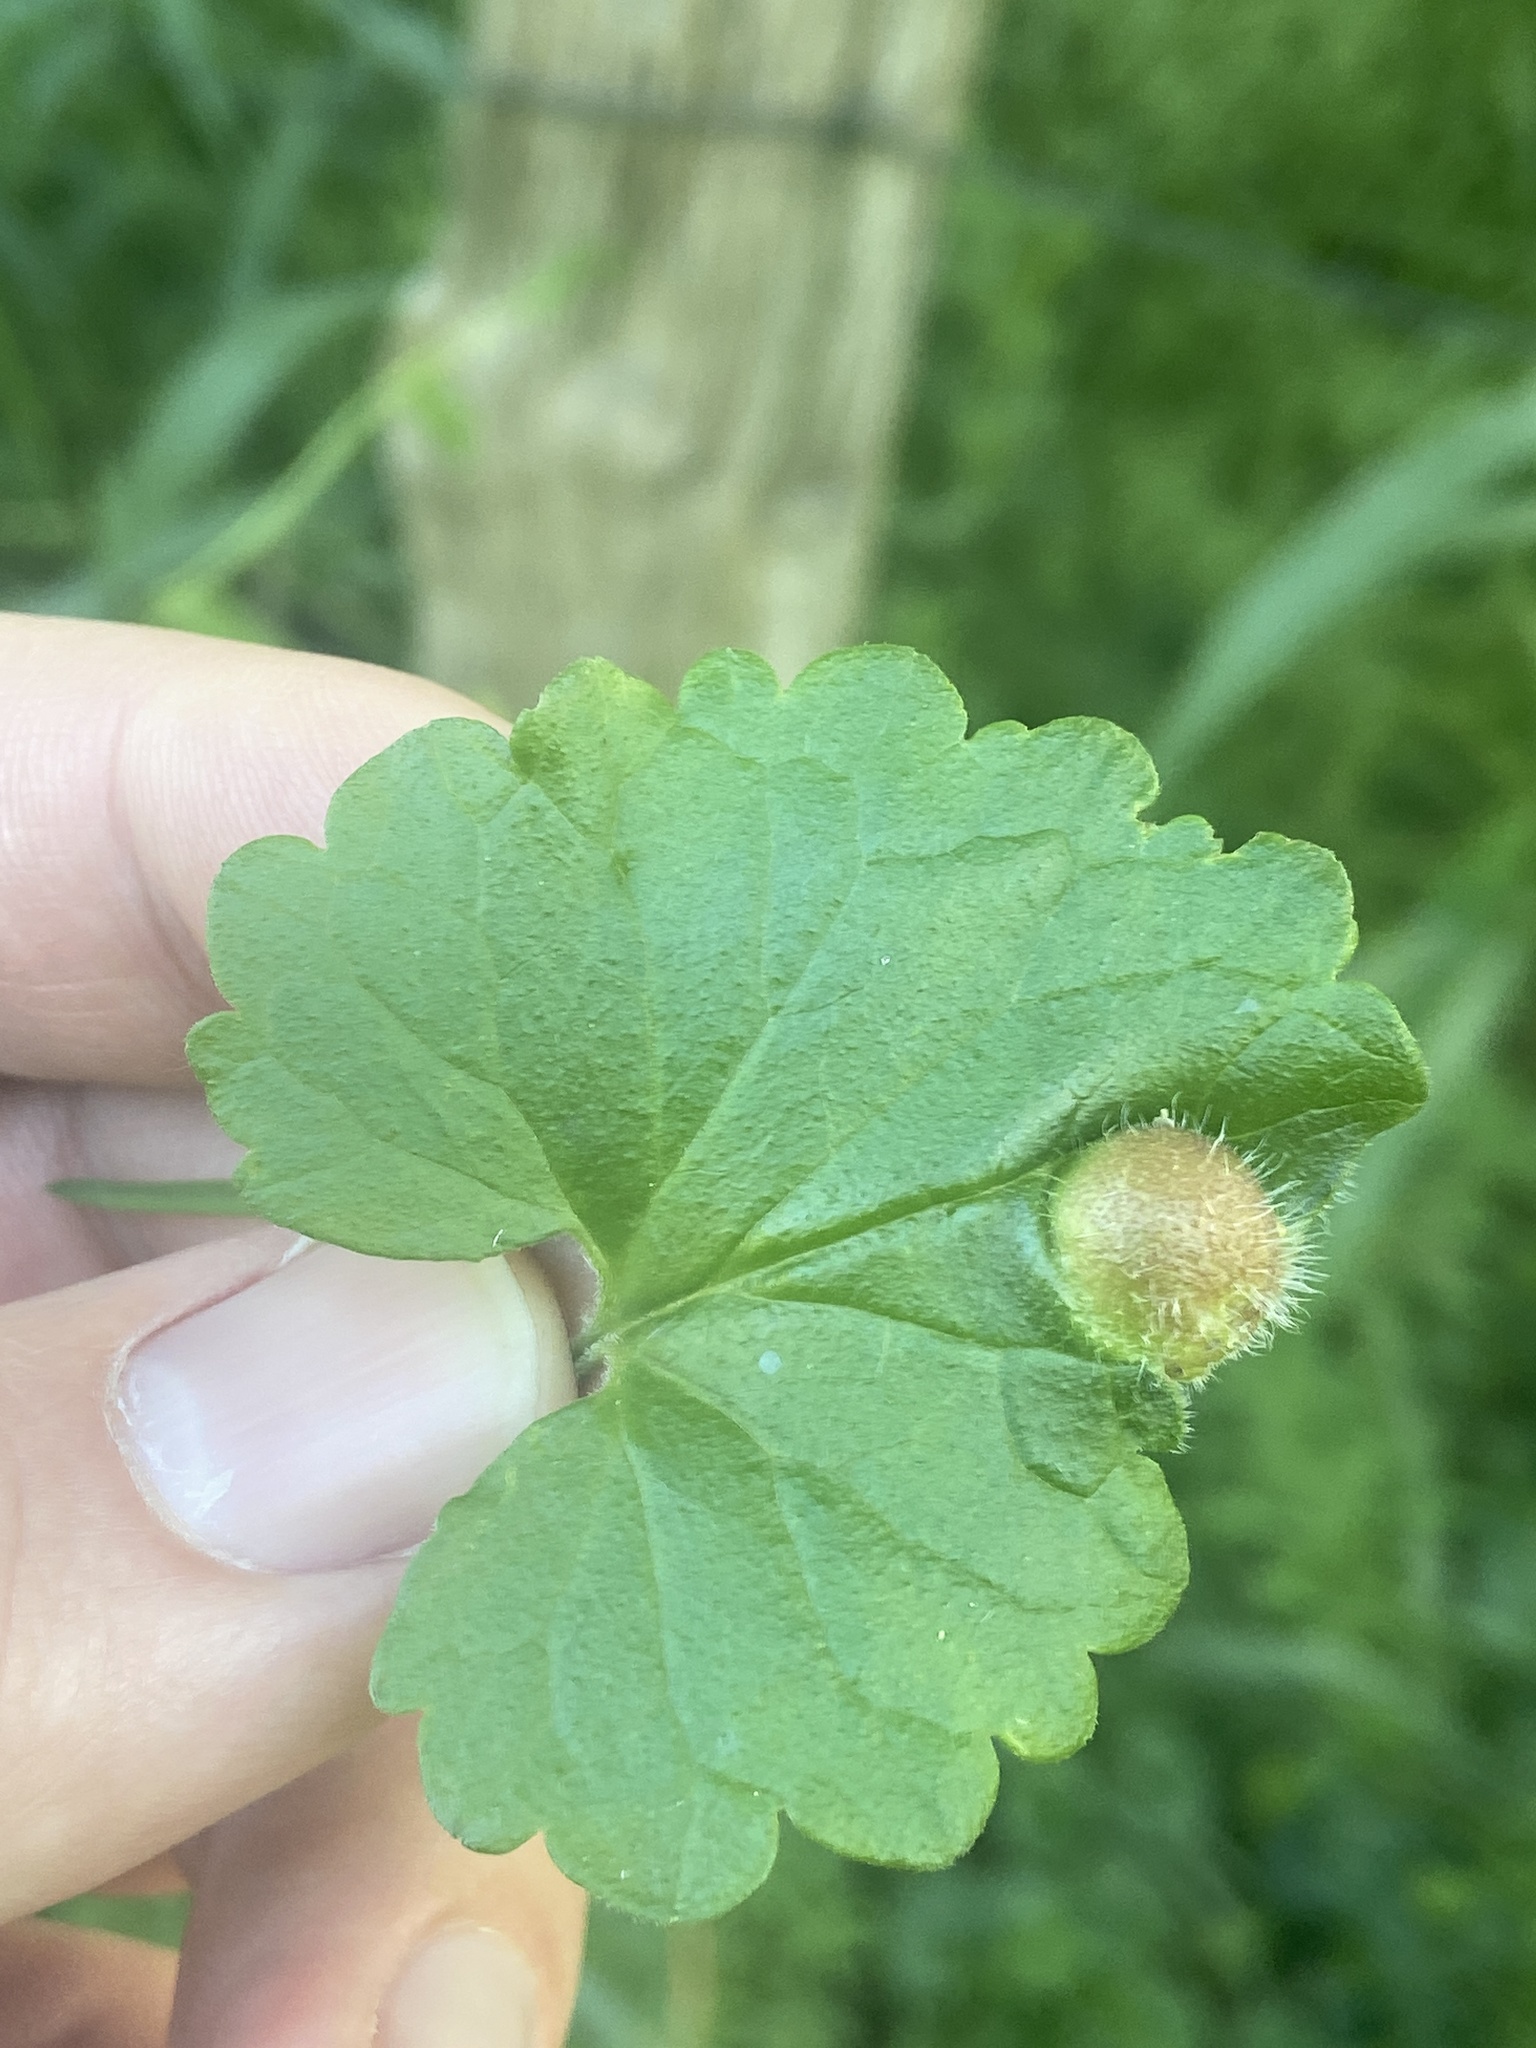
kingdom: Animalia
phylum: Arthropoda
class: Insecta
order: Hymenoptera
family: Cynipidae
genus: Liposthenes
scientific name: Liposthenes glechomae
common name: Gall wasp
